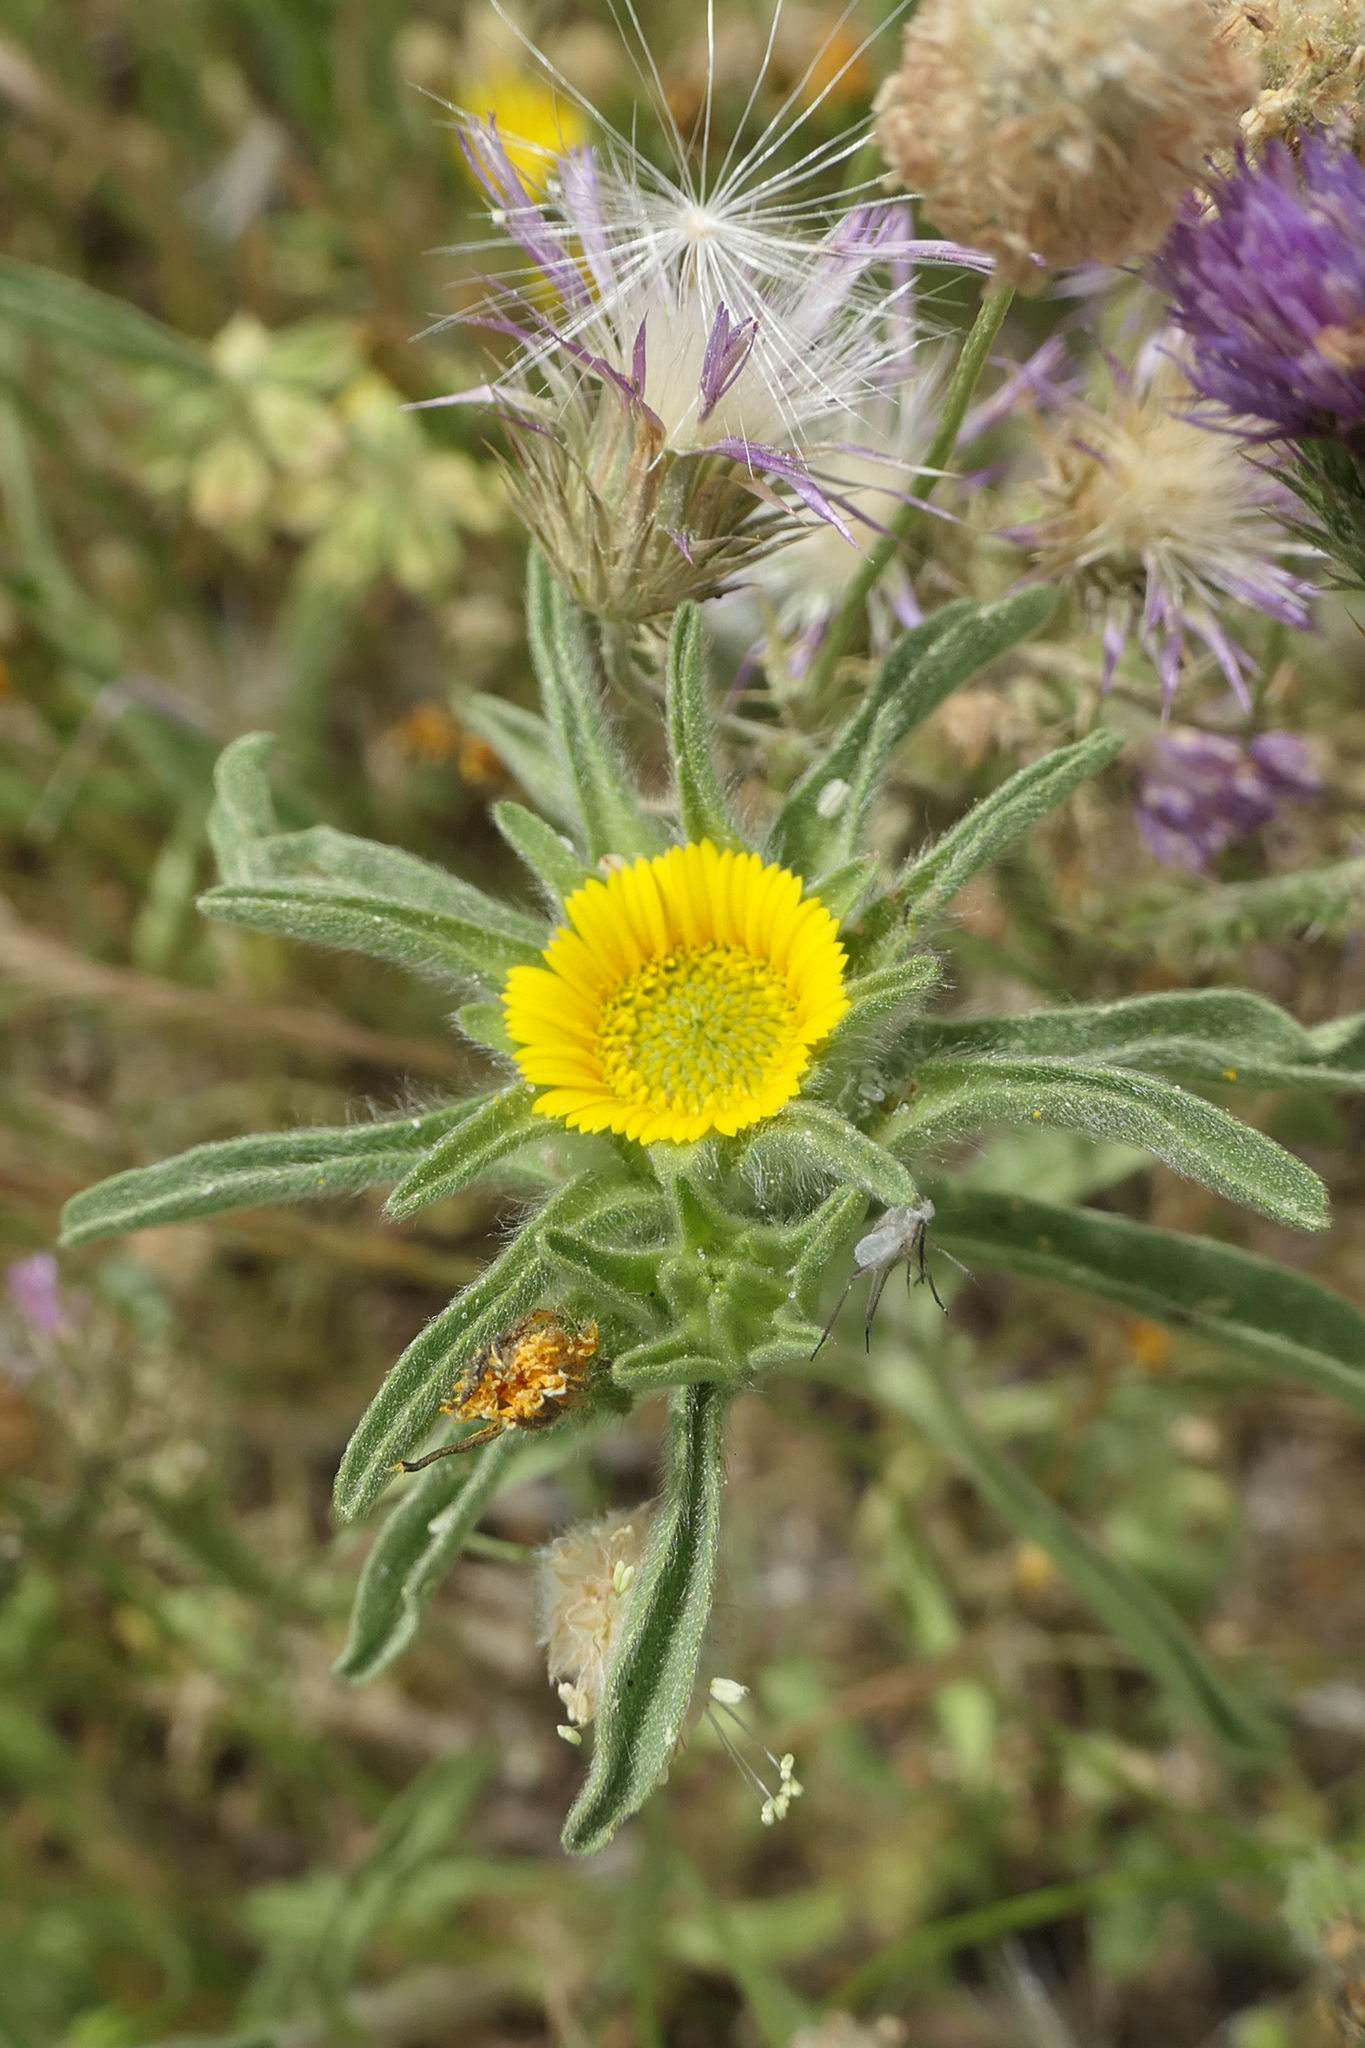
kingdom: Plantae
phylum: Tracheophyta
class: Magnoliopsida
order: Asterales
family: Asteraceae
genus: Asteriscus
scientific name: Asteriscus aquaticus
